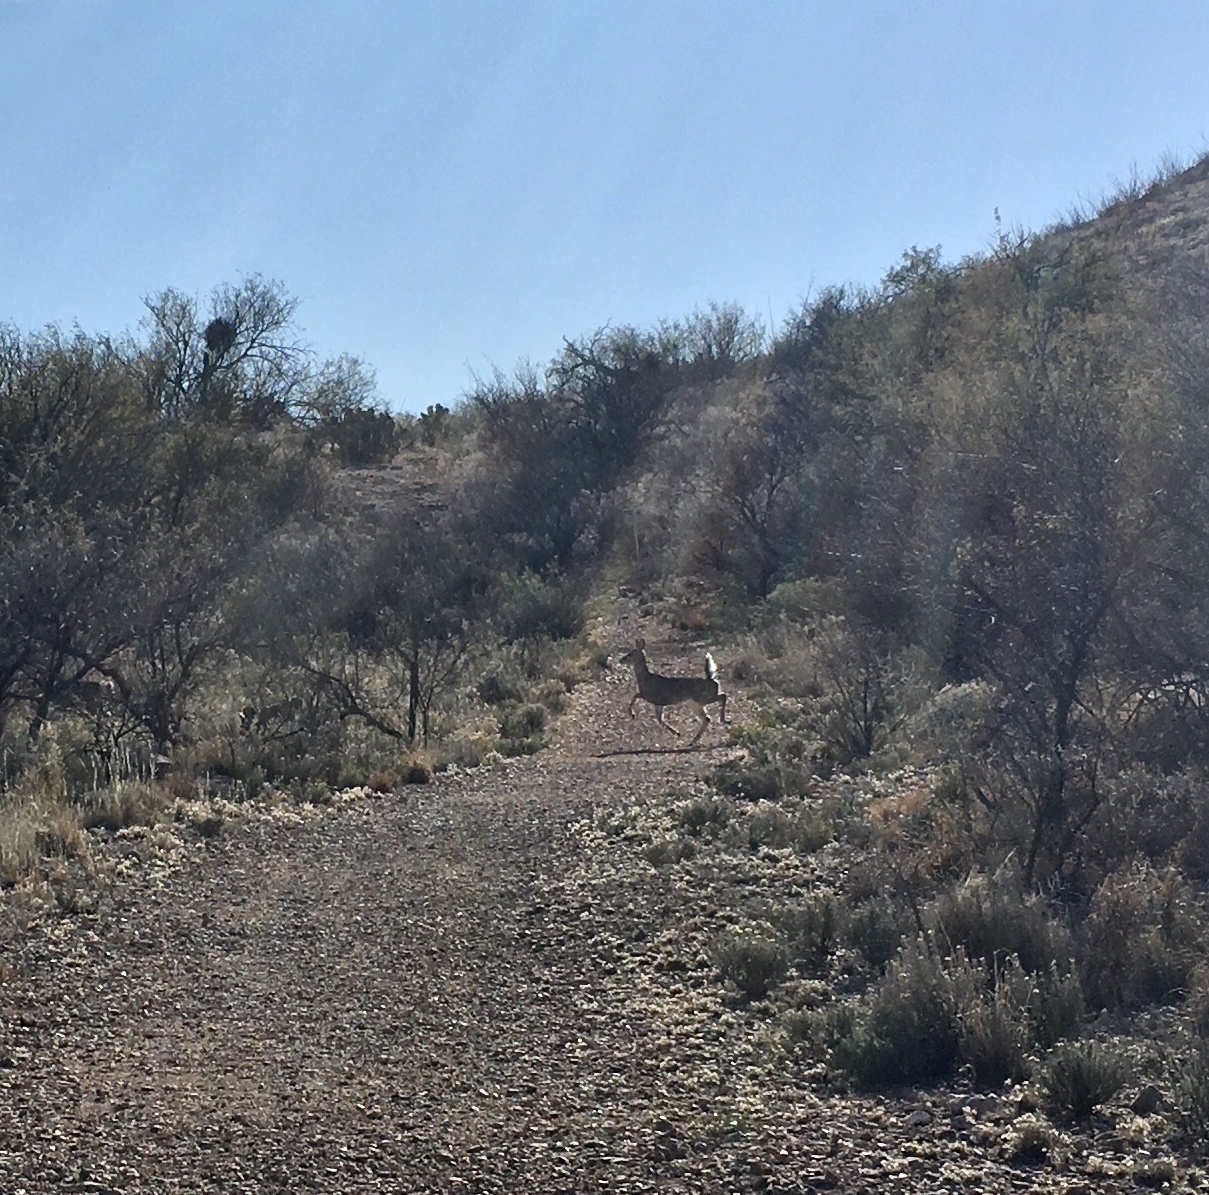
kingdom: Animalia
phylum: Chordata
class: Mammalia
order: Artiodactyla
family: Cervidae
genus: Odocoileus
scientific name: Odocoileus virginianus
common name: White-tailed deer
